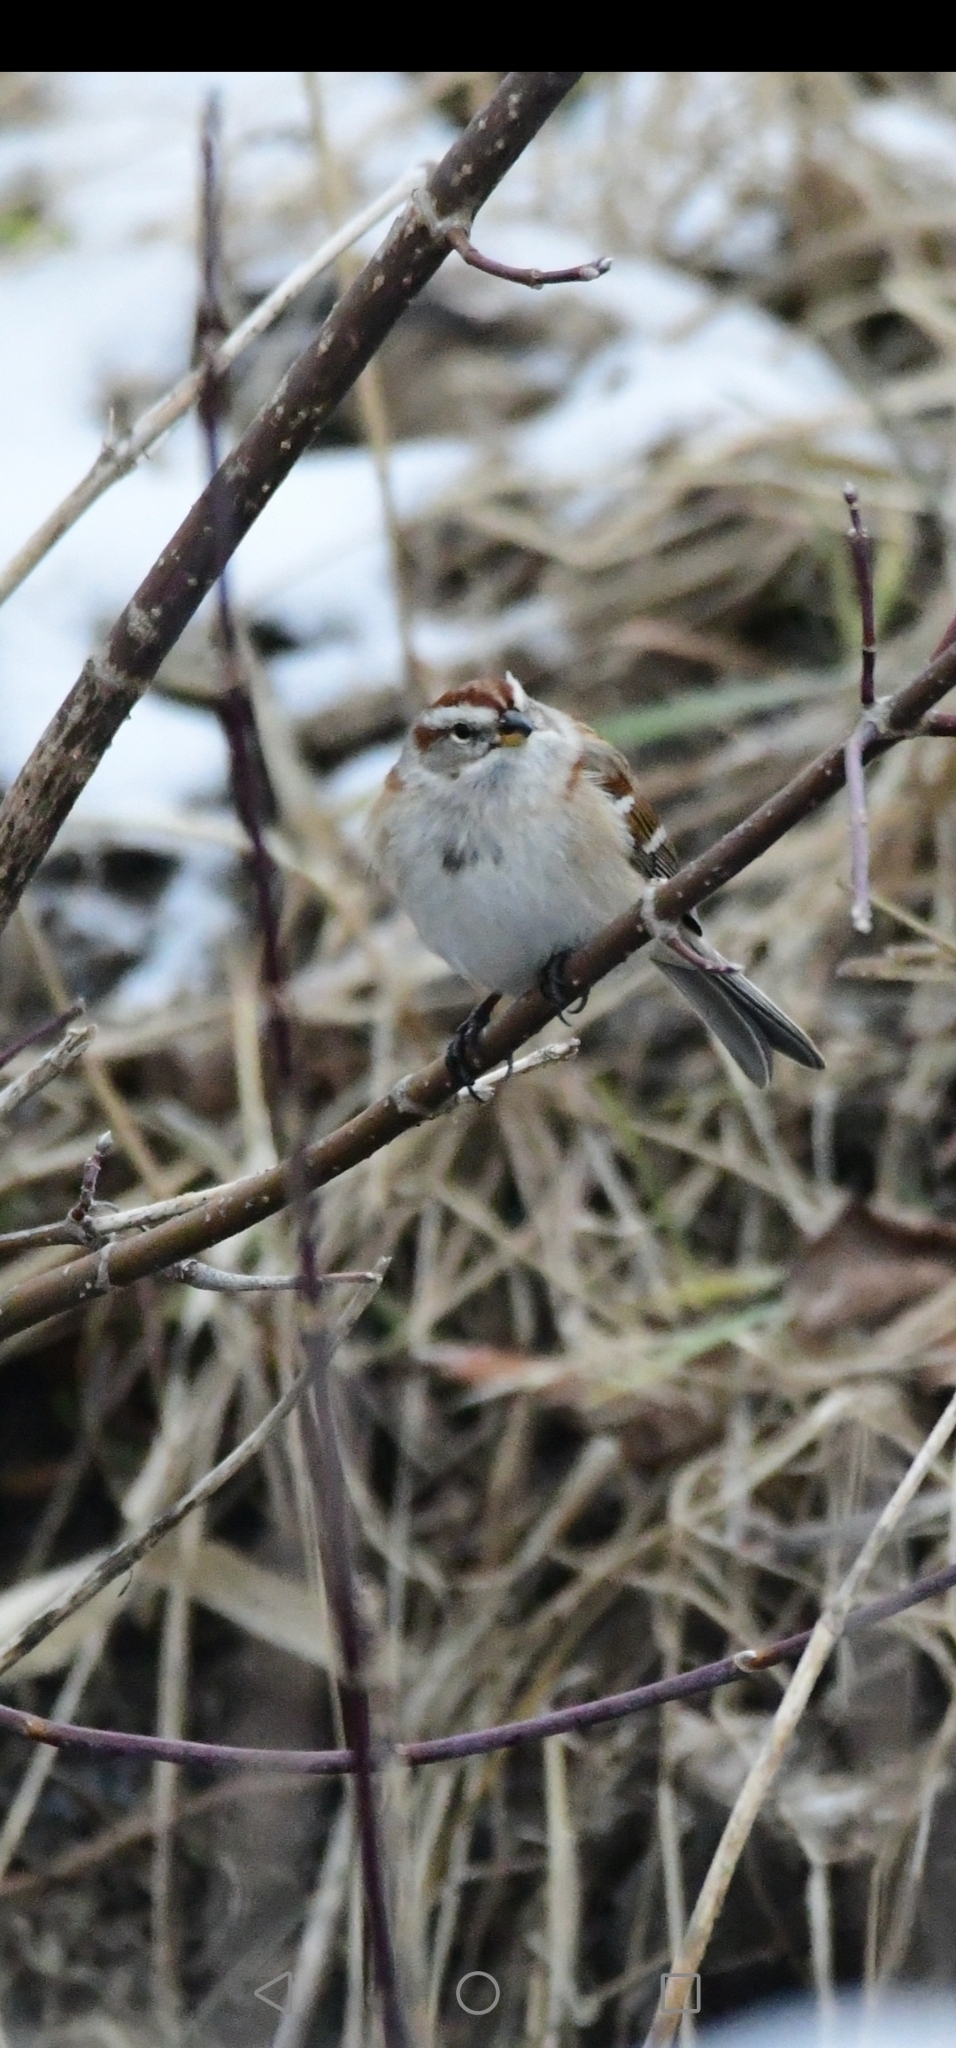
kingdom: Animalia
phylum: Chordata
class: Aves
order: Passeriformes
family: Passerellidae
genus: Spizelloides
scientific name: Spizelloides arborea
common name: American tree sparrow
